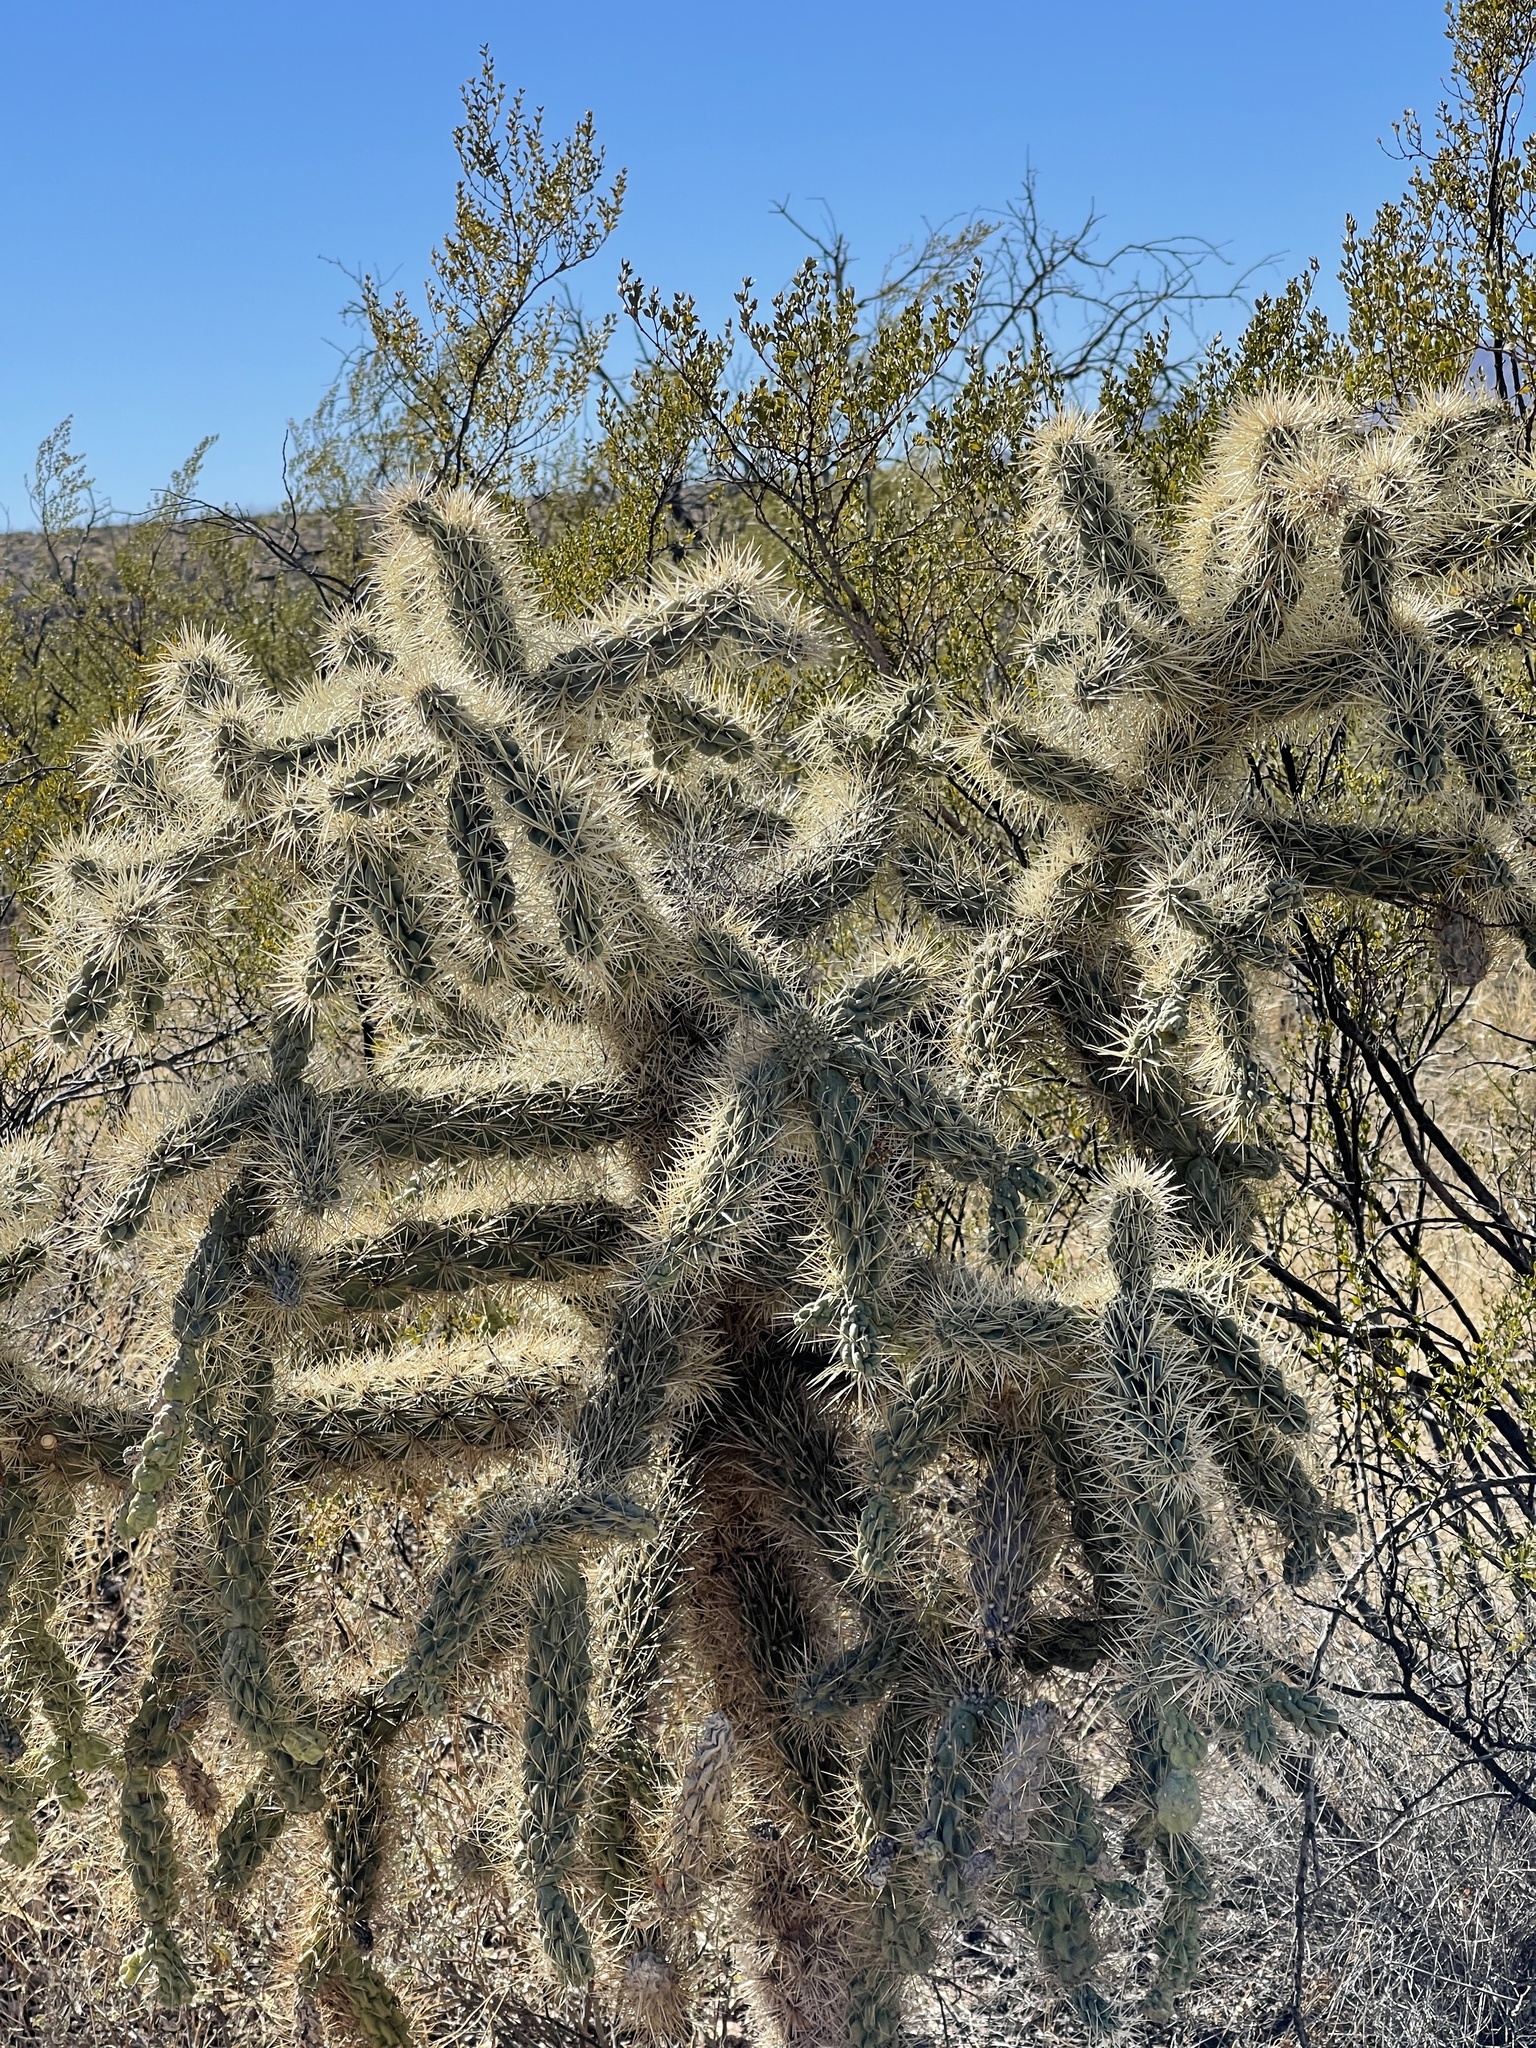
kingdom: Plantae
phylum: Tracheophyta
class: Magnoliopsida
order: Caryophyllales
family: Cactaceae
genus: Cylindropuntia
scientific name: Cylindropuntia fulgida
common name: Jumping cholla
